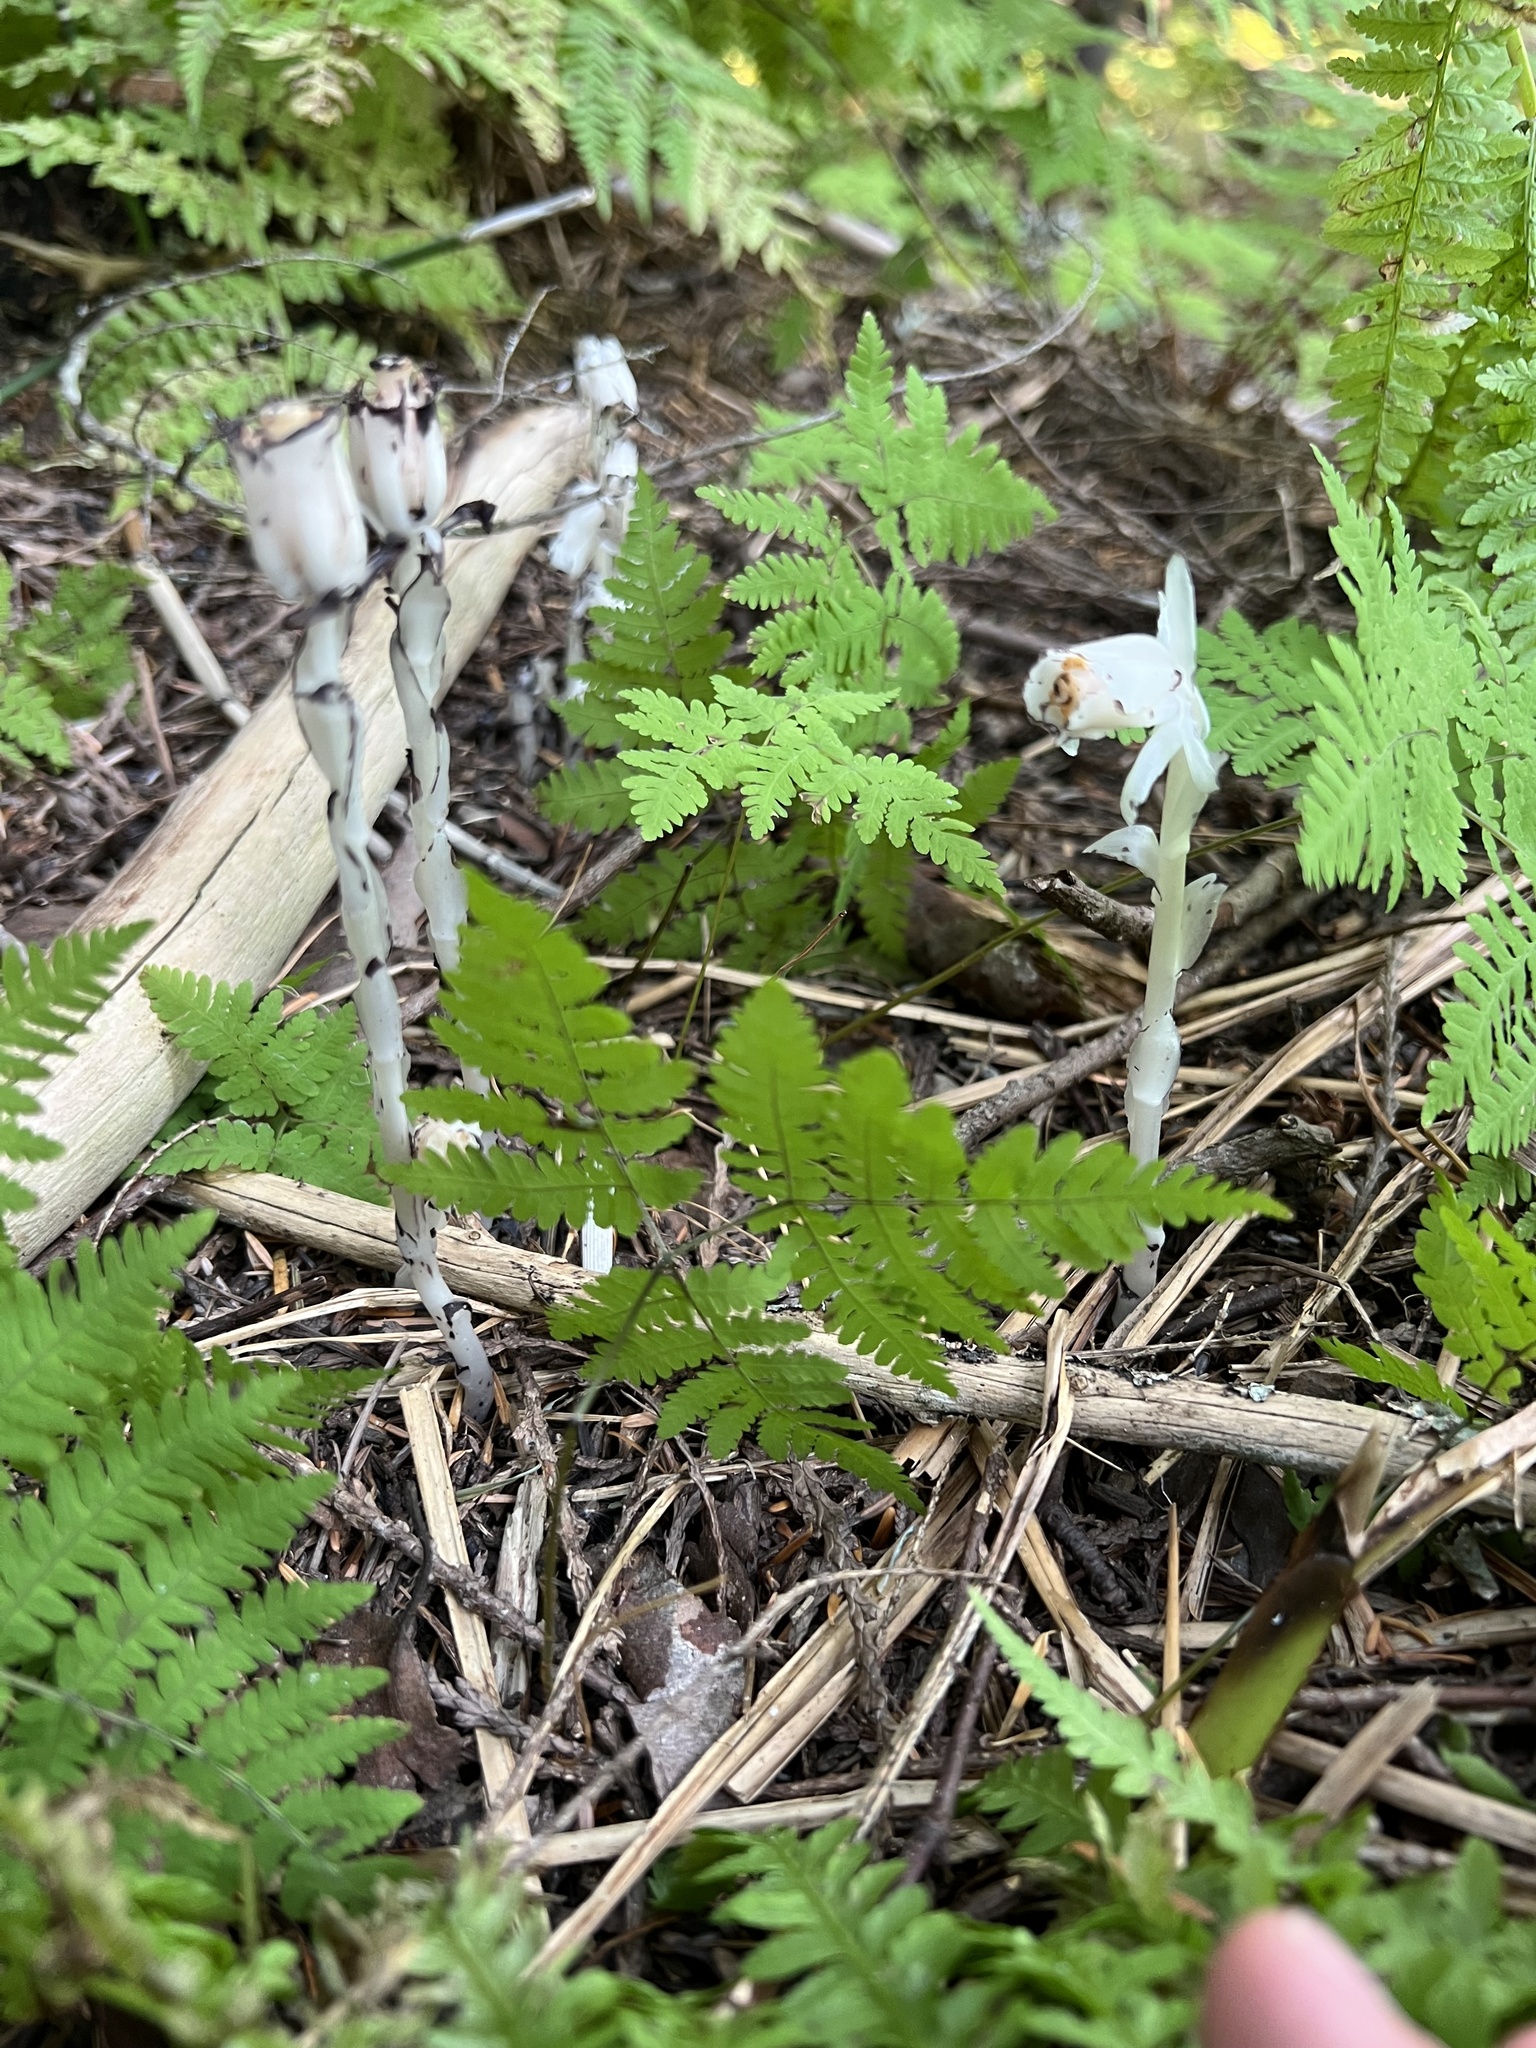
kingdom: Plantae
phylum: Tracheophyta
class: Magnoliopsida
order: Ericales
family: Ericaceae
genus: Monotropa
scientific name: Monotropa uniflora
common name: Convulsion root
